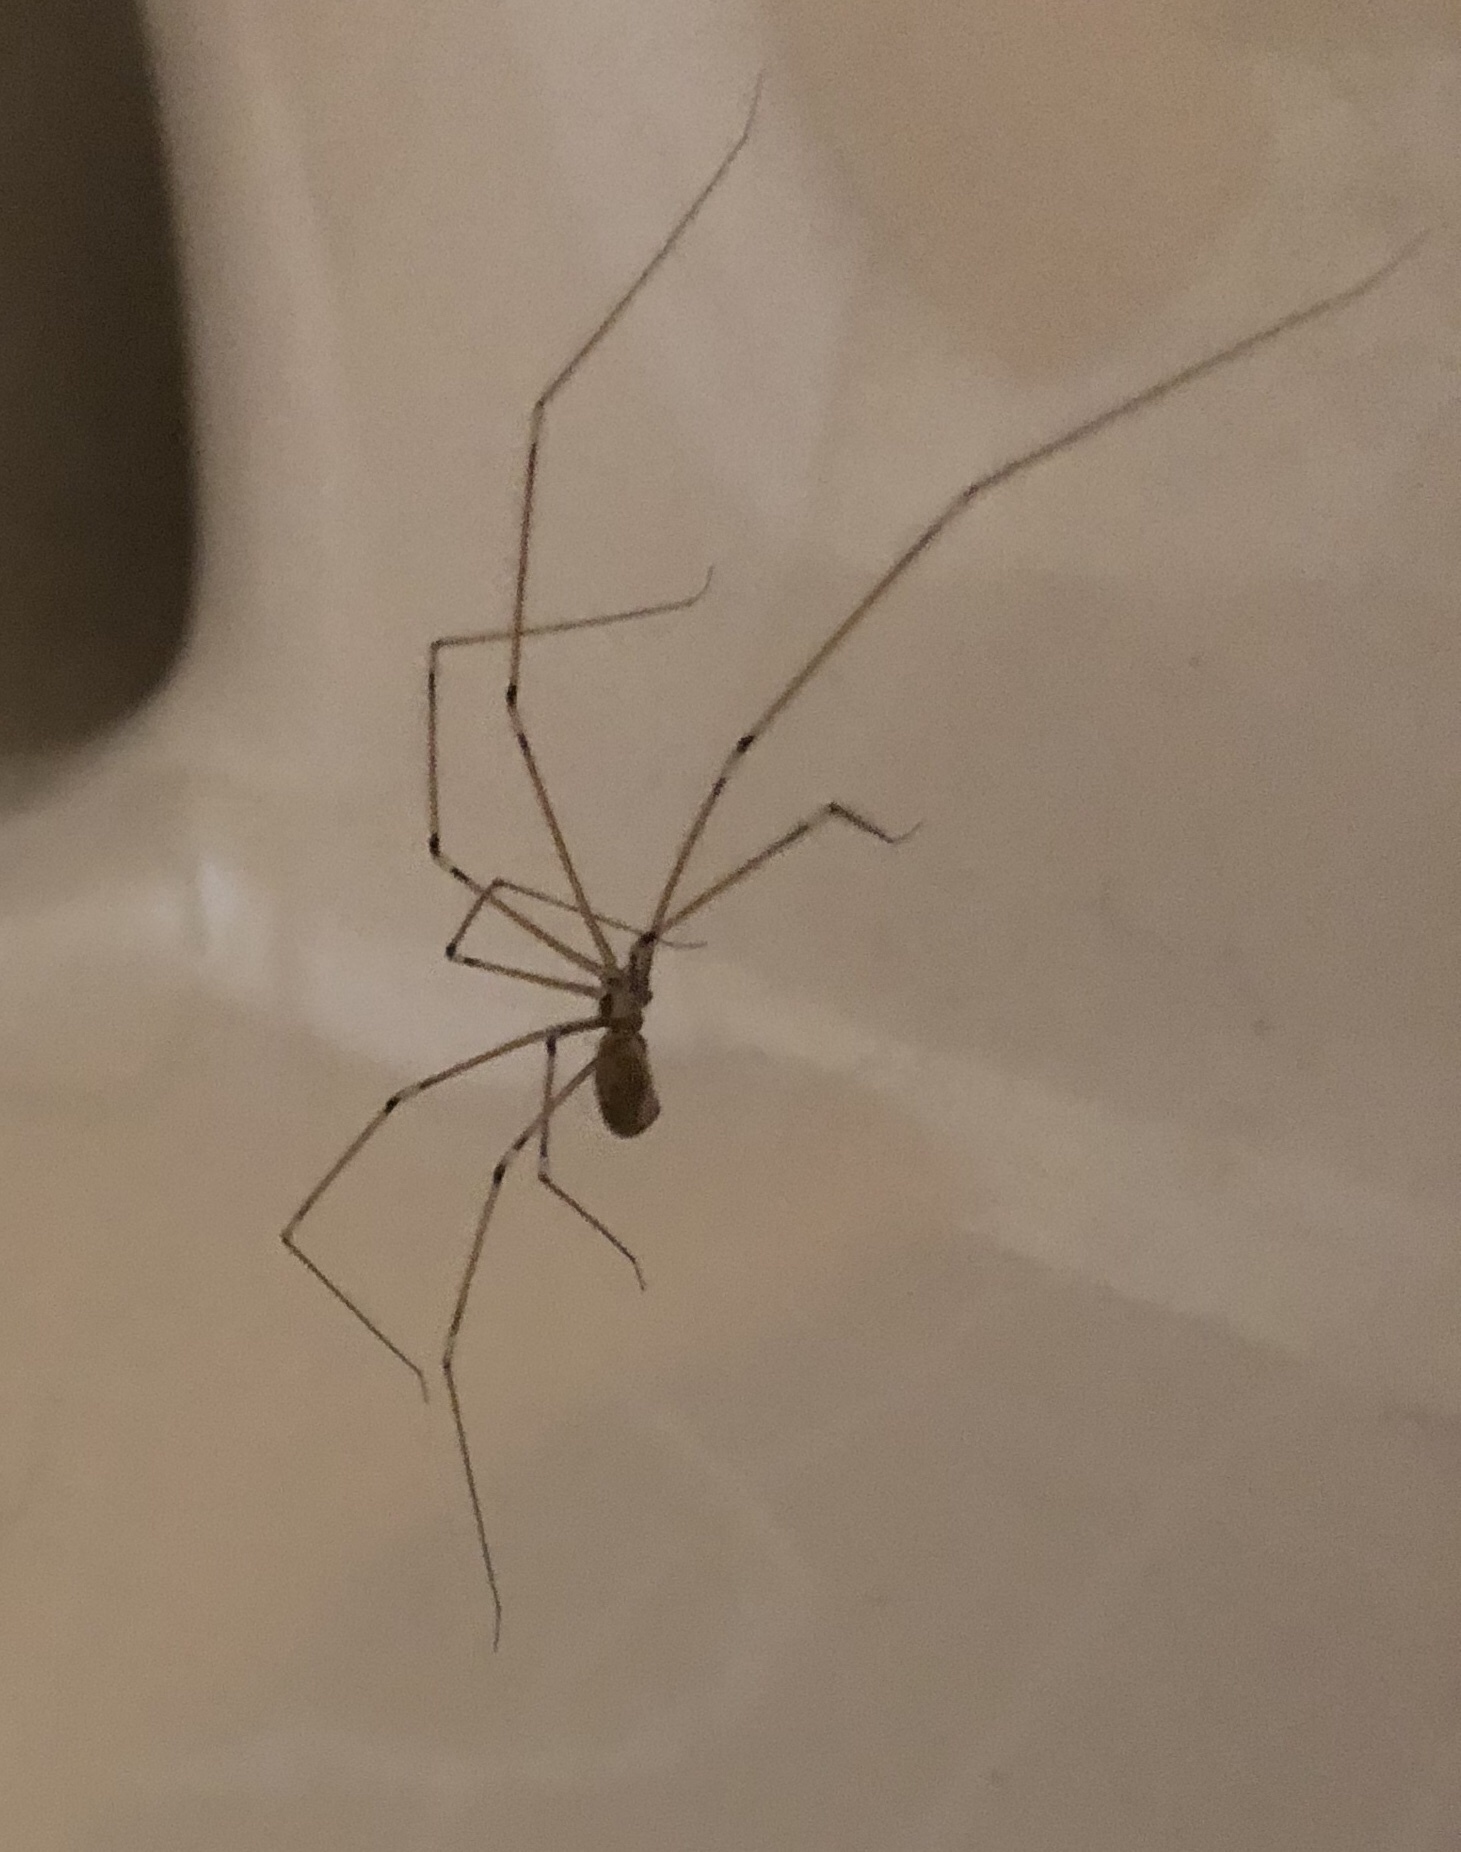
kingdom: Animalia
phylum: Arthropoda
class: Arachnida
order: Araneae
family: Pholcidae
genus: Pholcus
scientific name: Pholcus phalangioides
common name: Longbodied cellar spider
